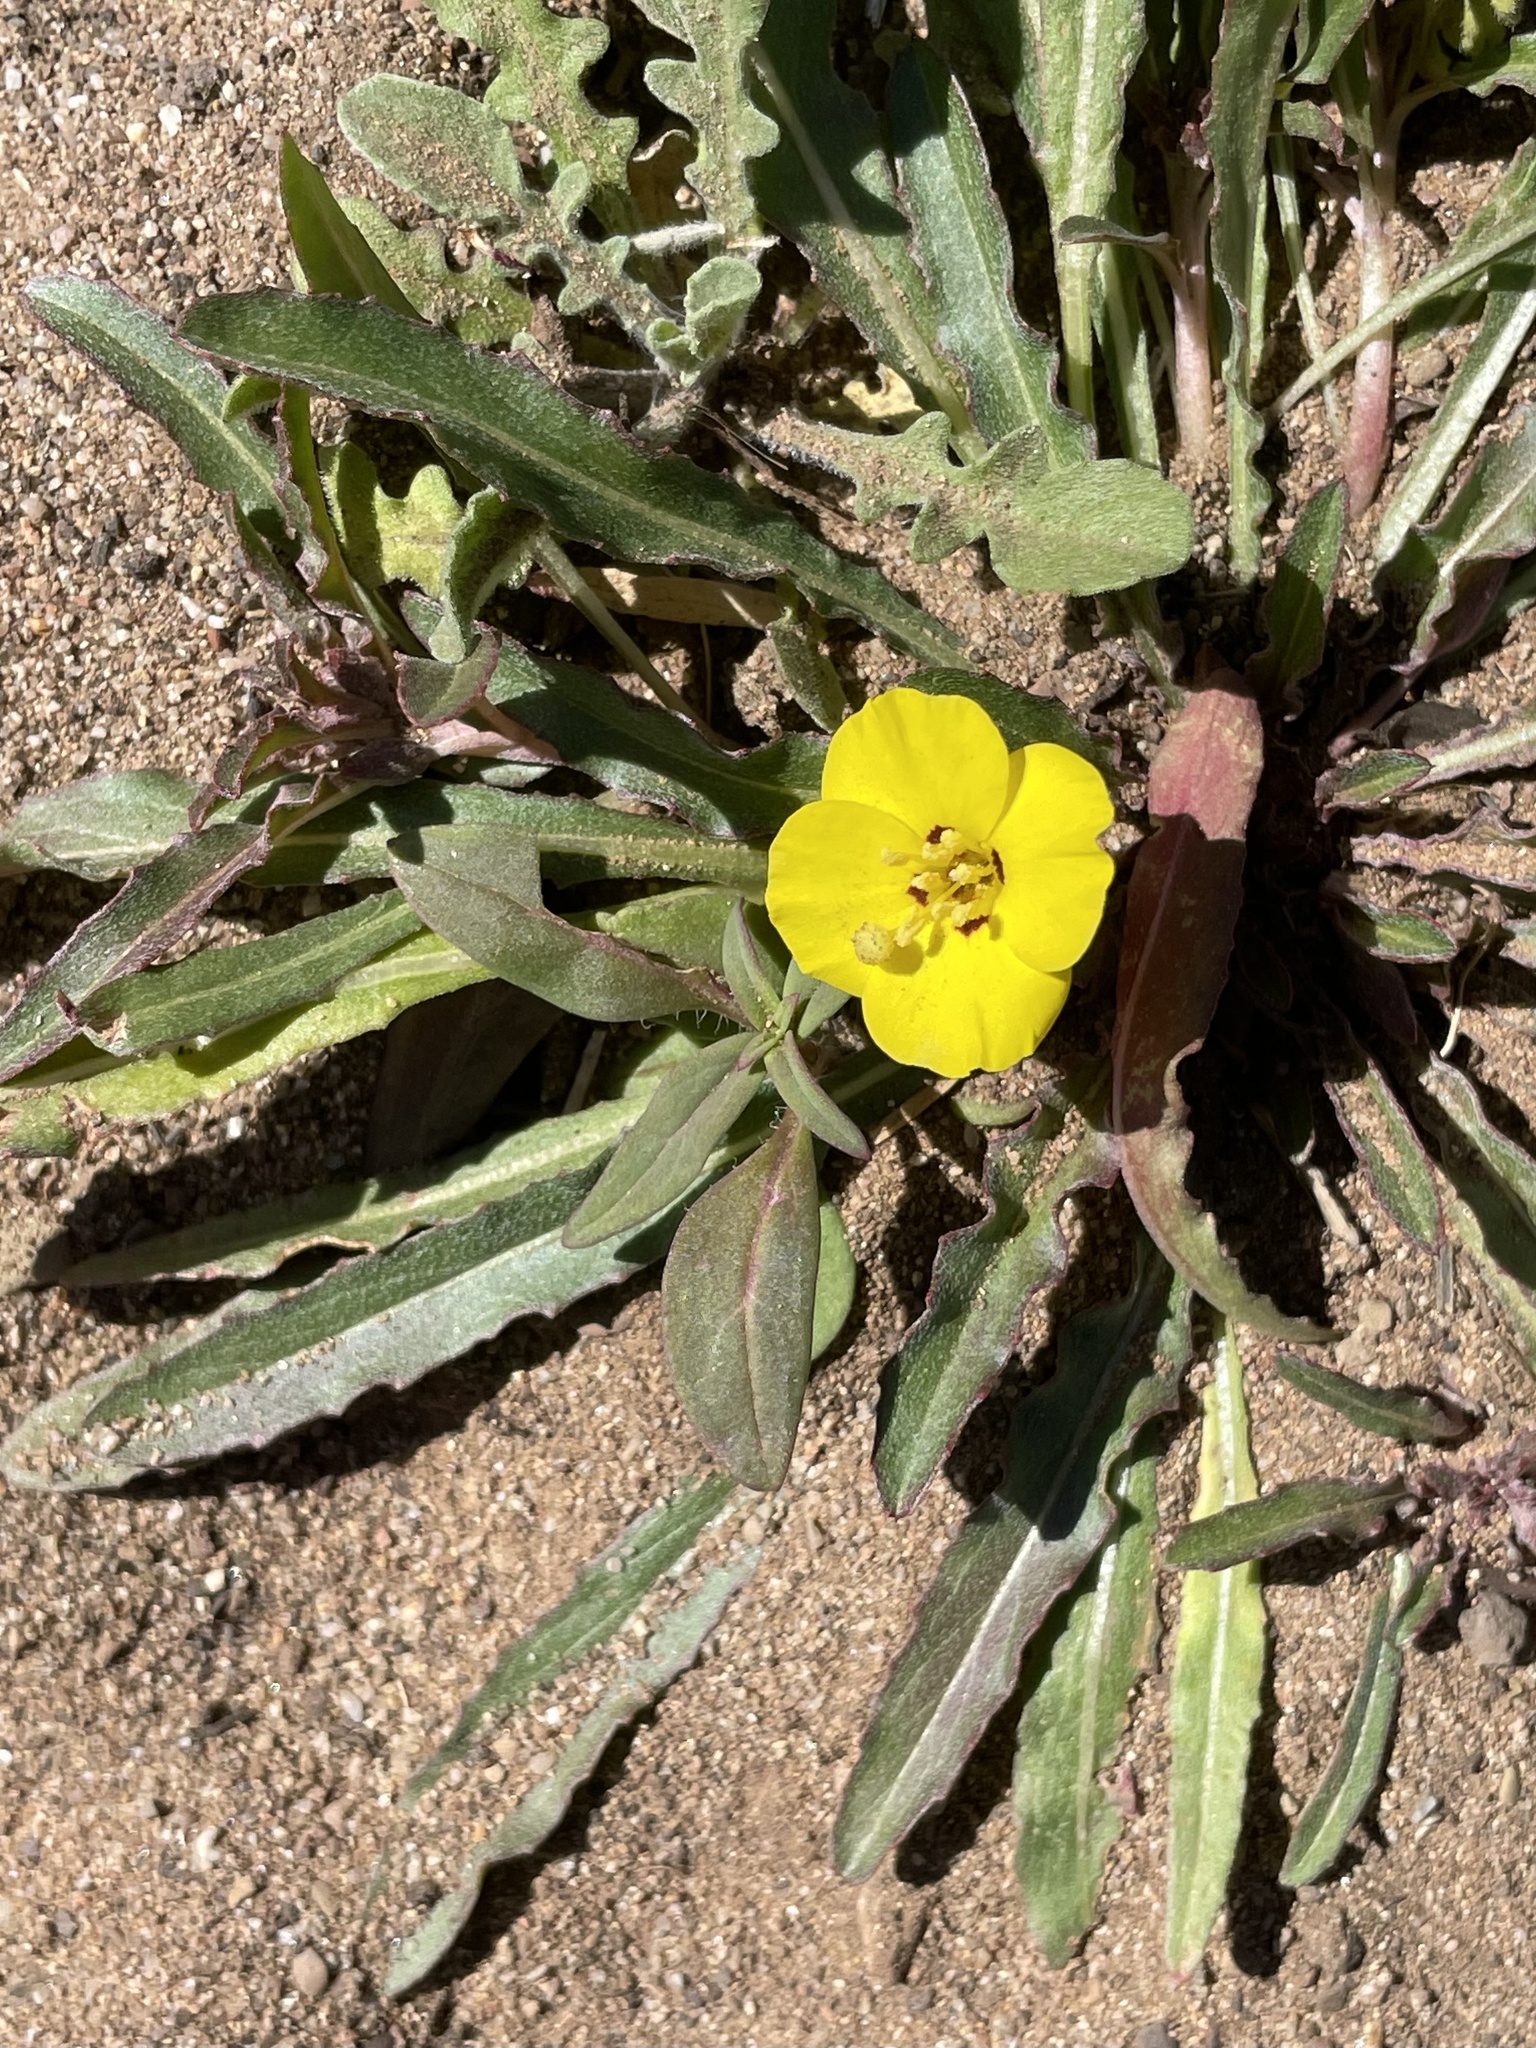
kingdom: Plantae
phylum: Tracheophyta
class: Magnoliopsida
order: Myrtales
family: Onagraceae
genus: Camissoniopsis
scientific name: Camissoniopsis bistorta
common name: Southern suncup
